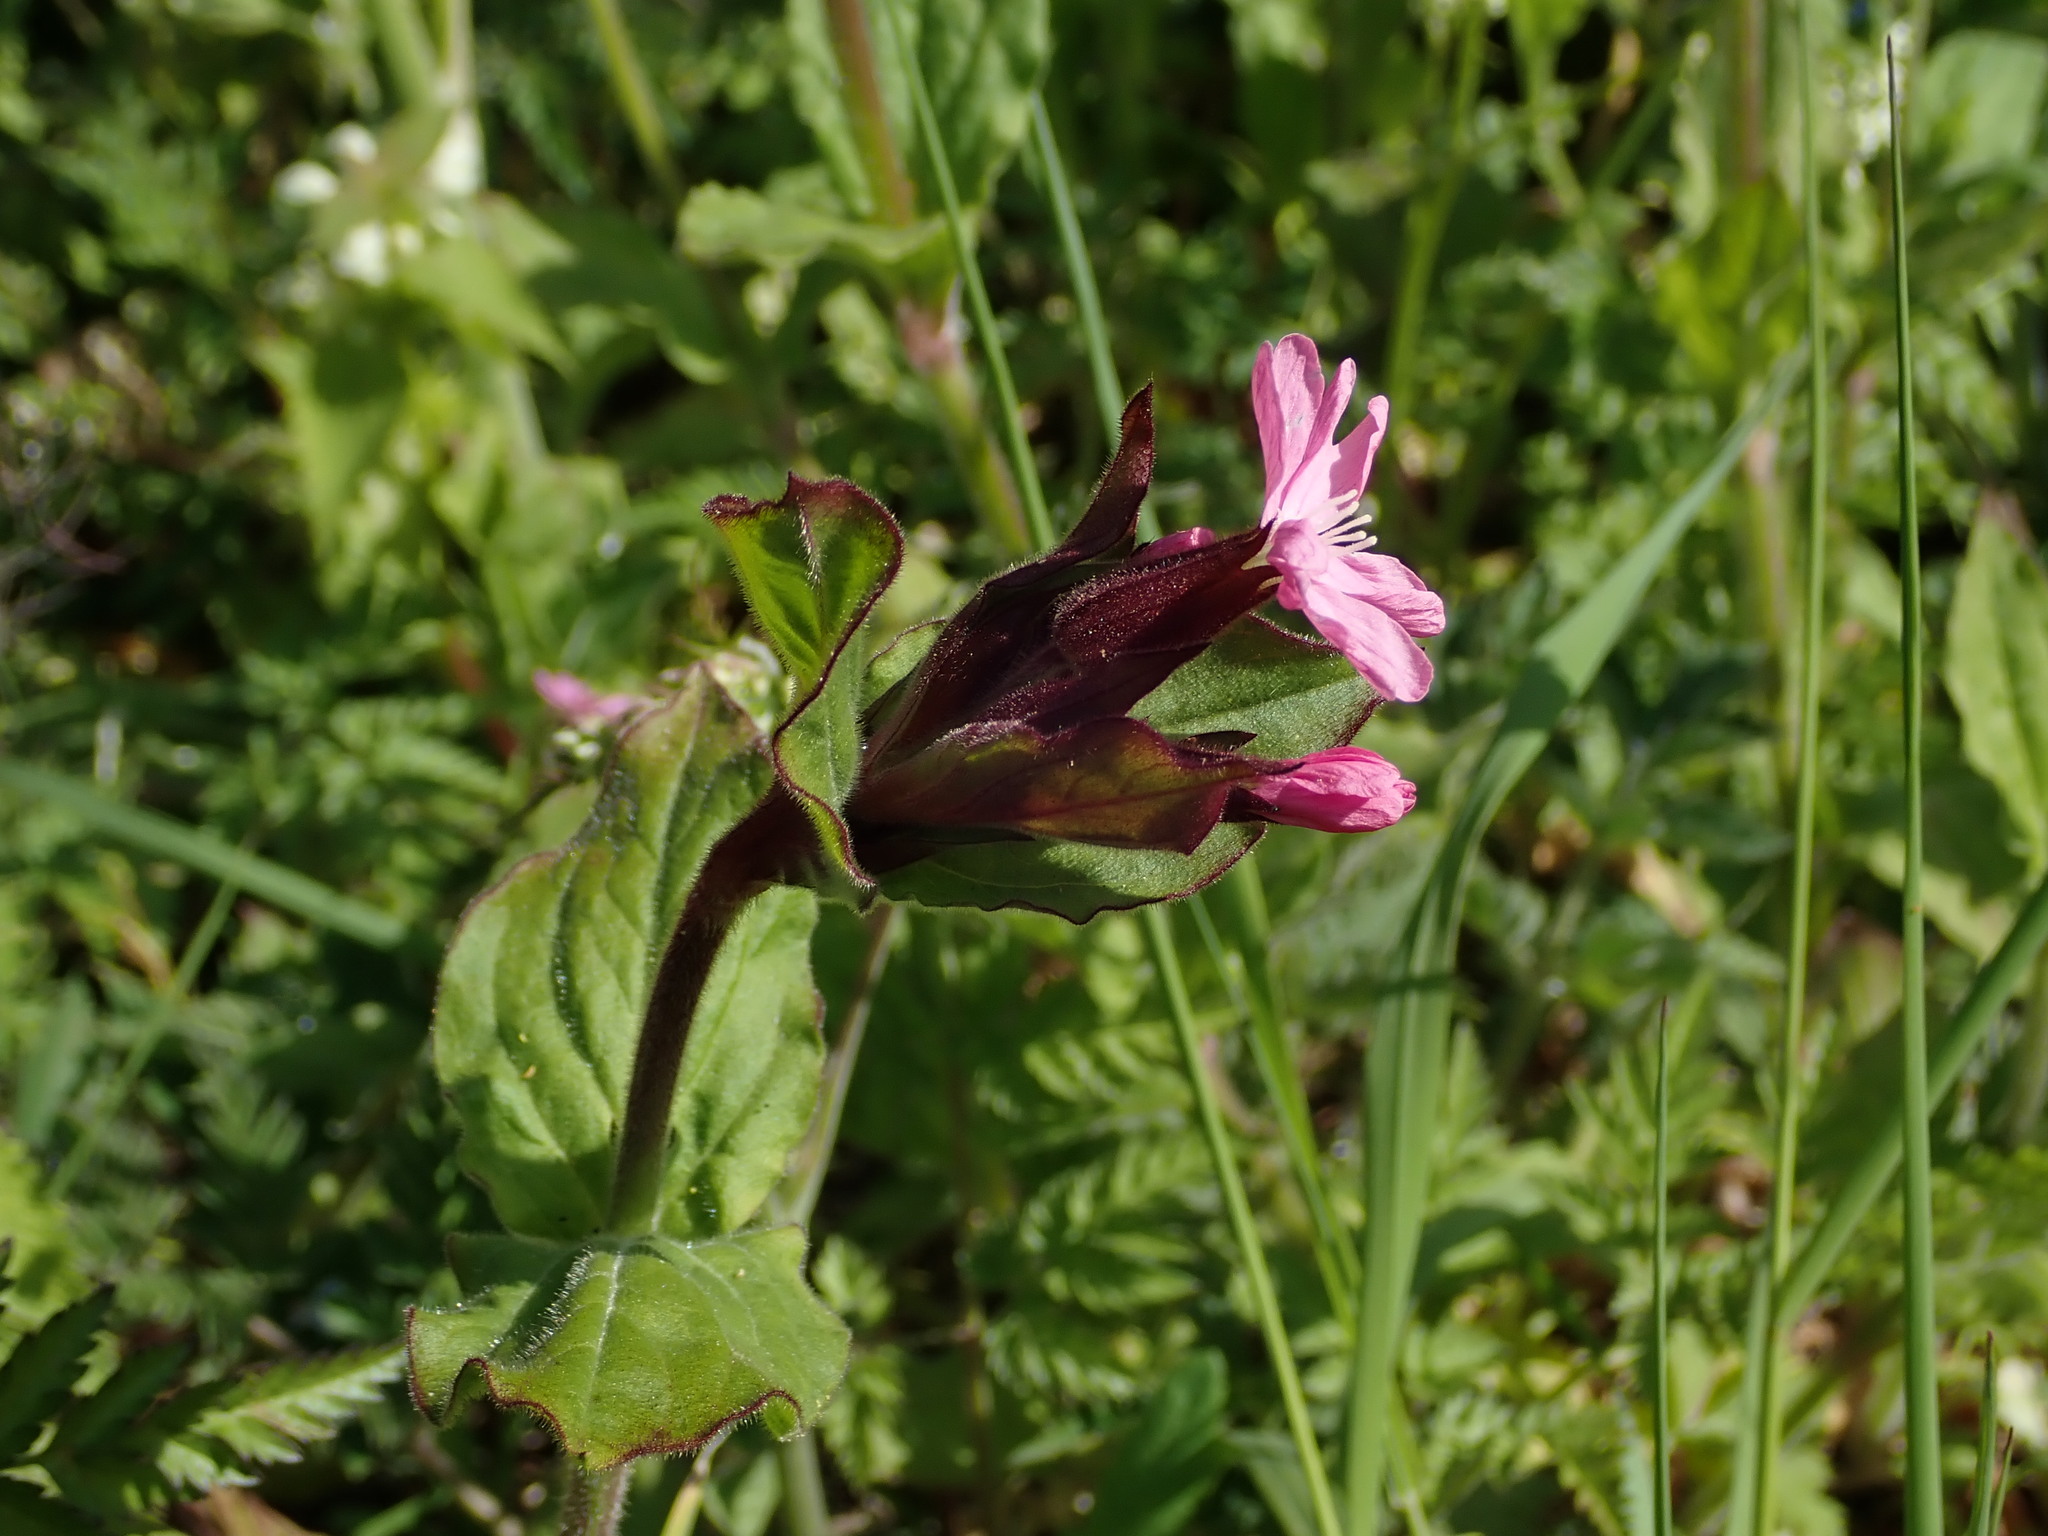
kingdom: Plantae
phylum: Tracheophyta
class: Magnoliopsida
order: Caryophyllales
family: Caryophyllaceae
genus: Silene
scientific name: Silene dioica
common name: Red campion
